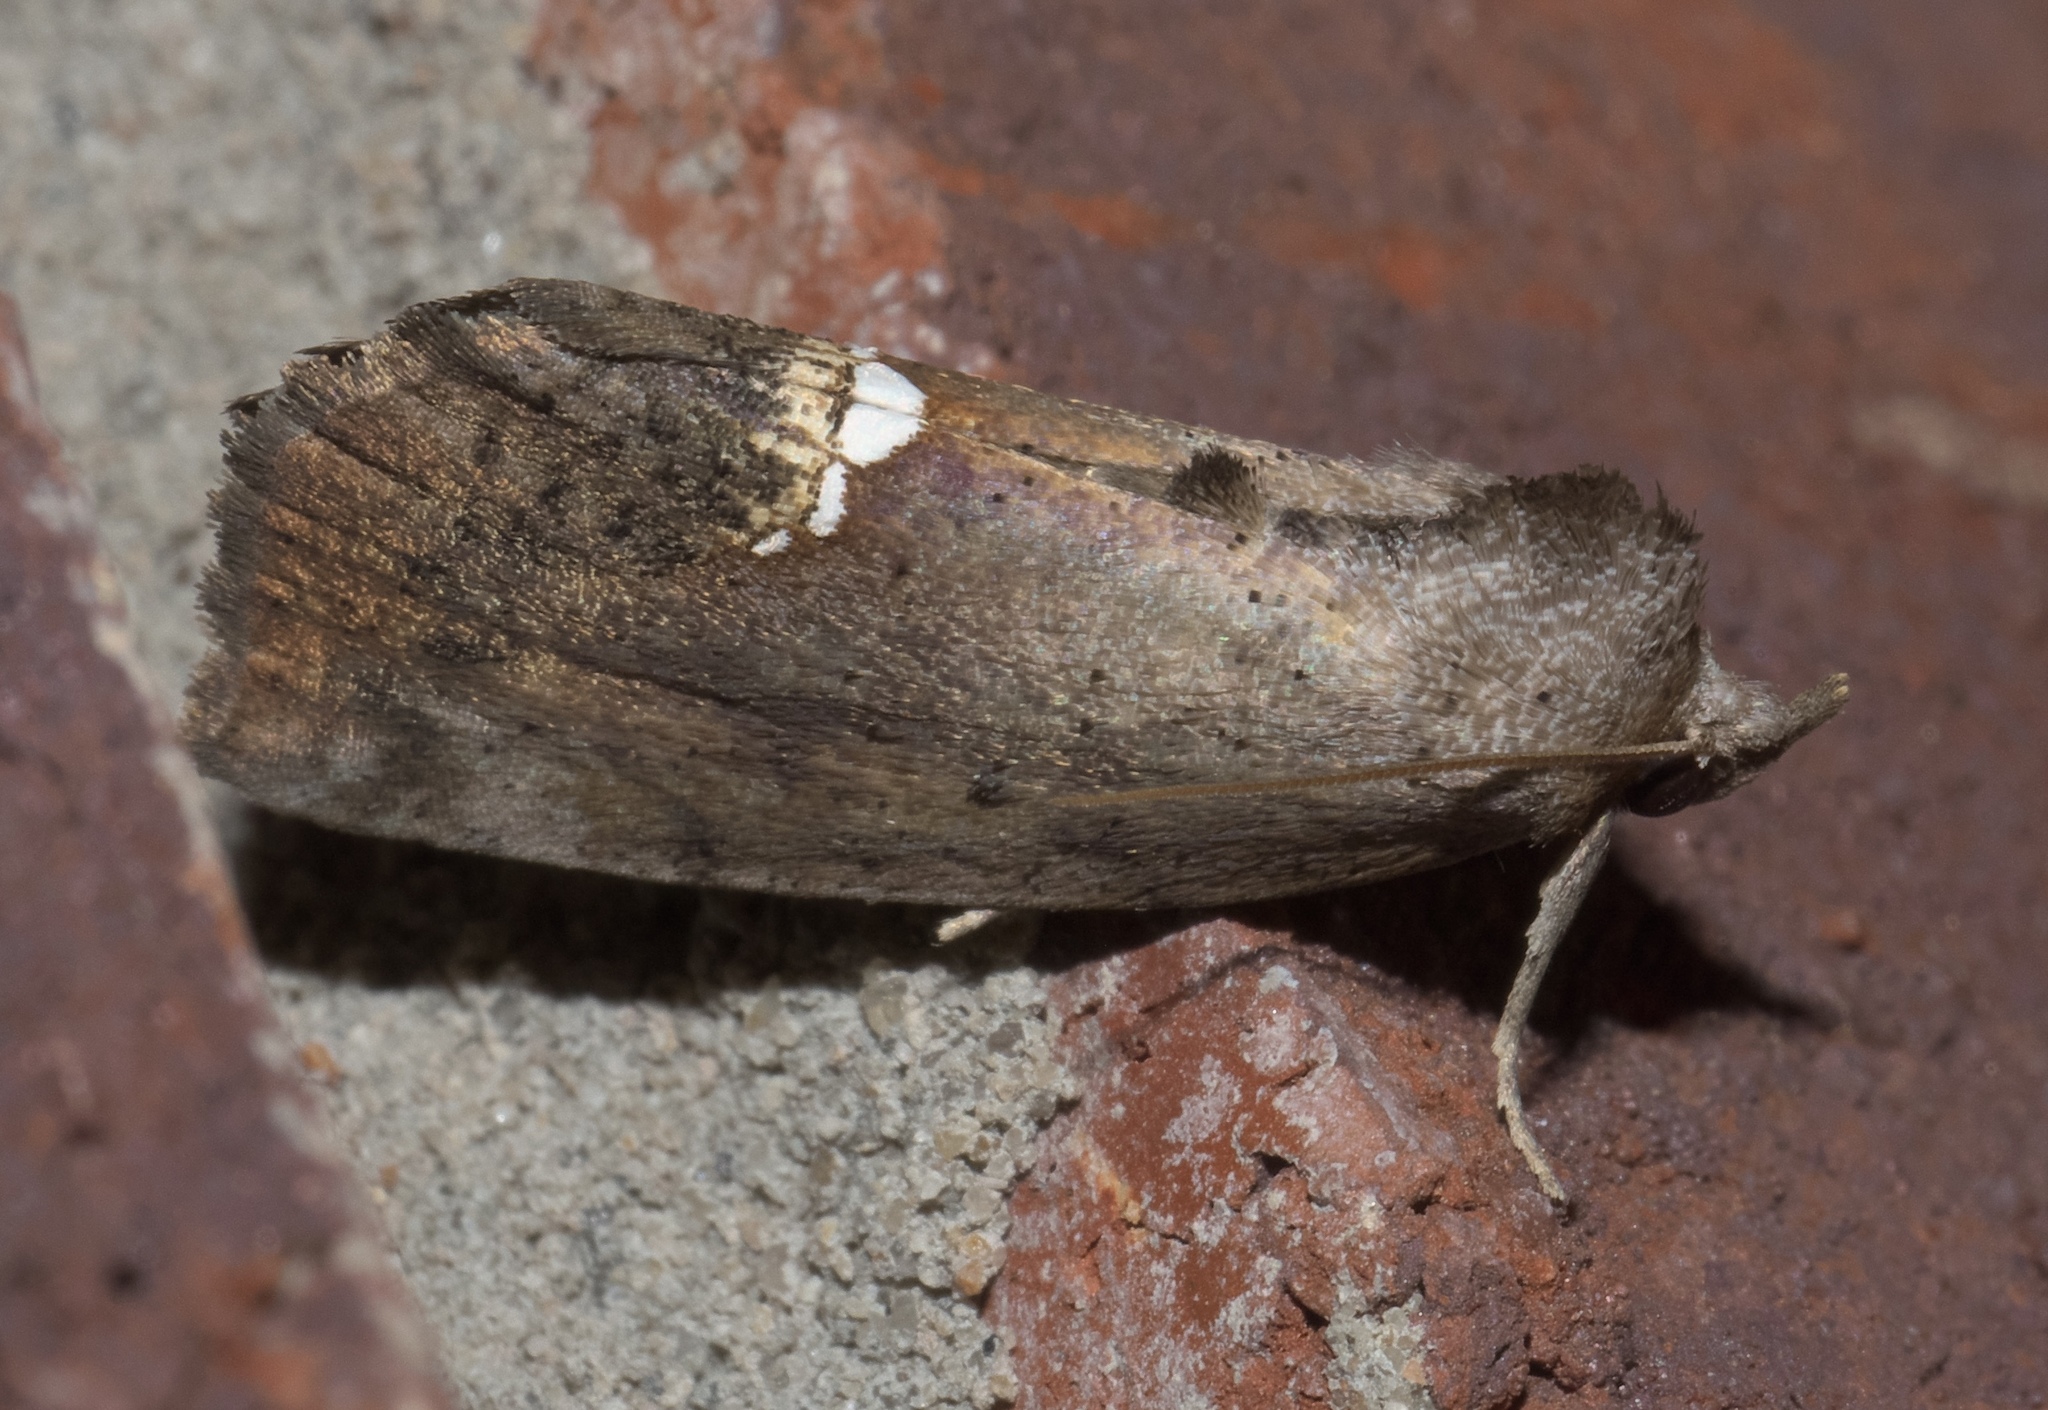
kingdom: Animalia
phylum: Arthropoda
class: Insecta
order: Lepidoptera
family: Erebidae
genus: Hypsoropha
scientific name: Hypsoropha hormos
